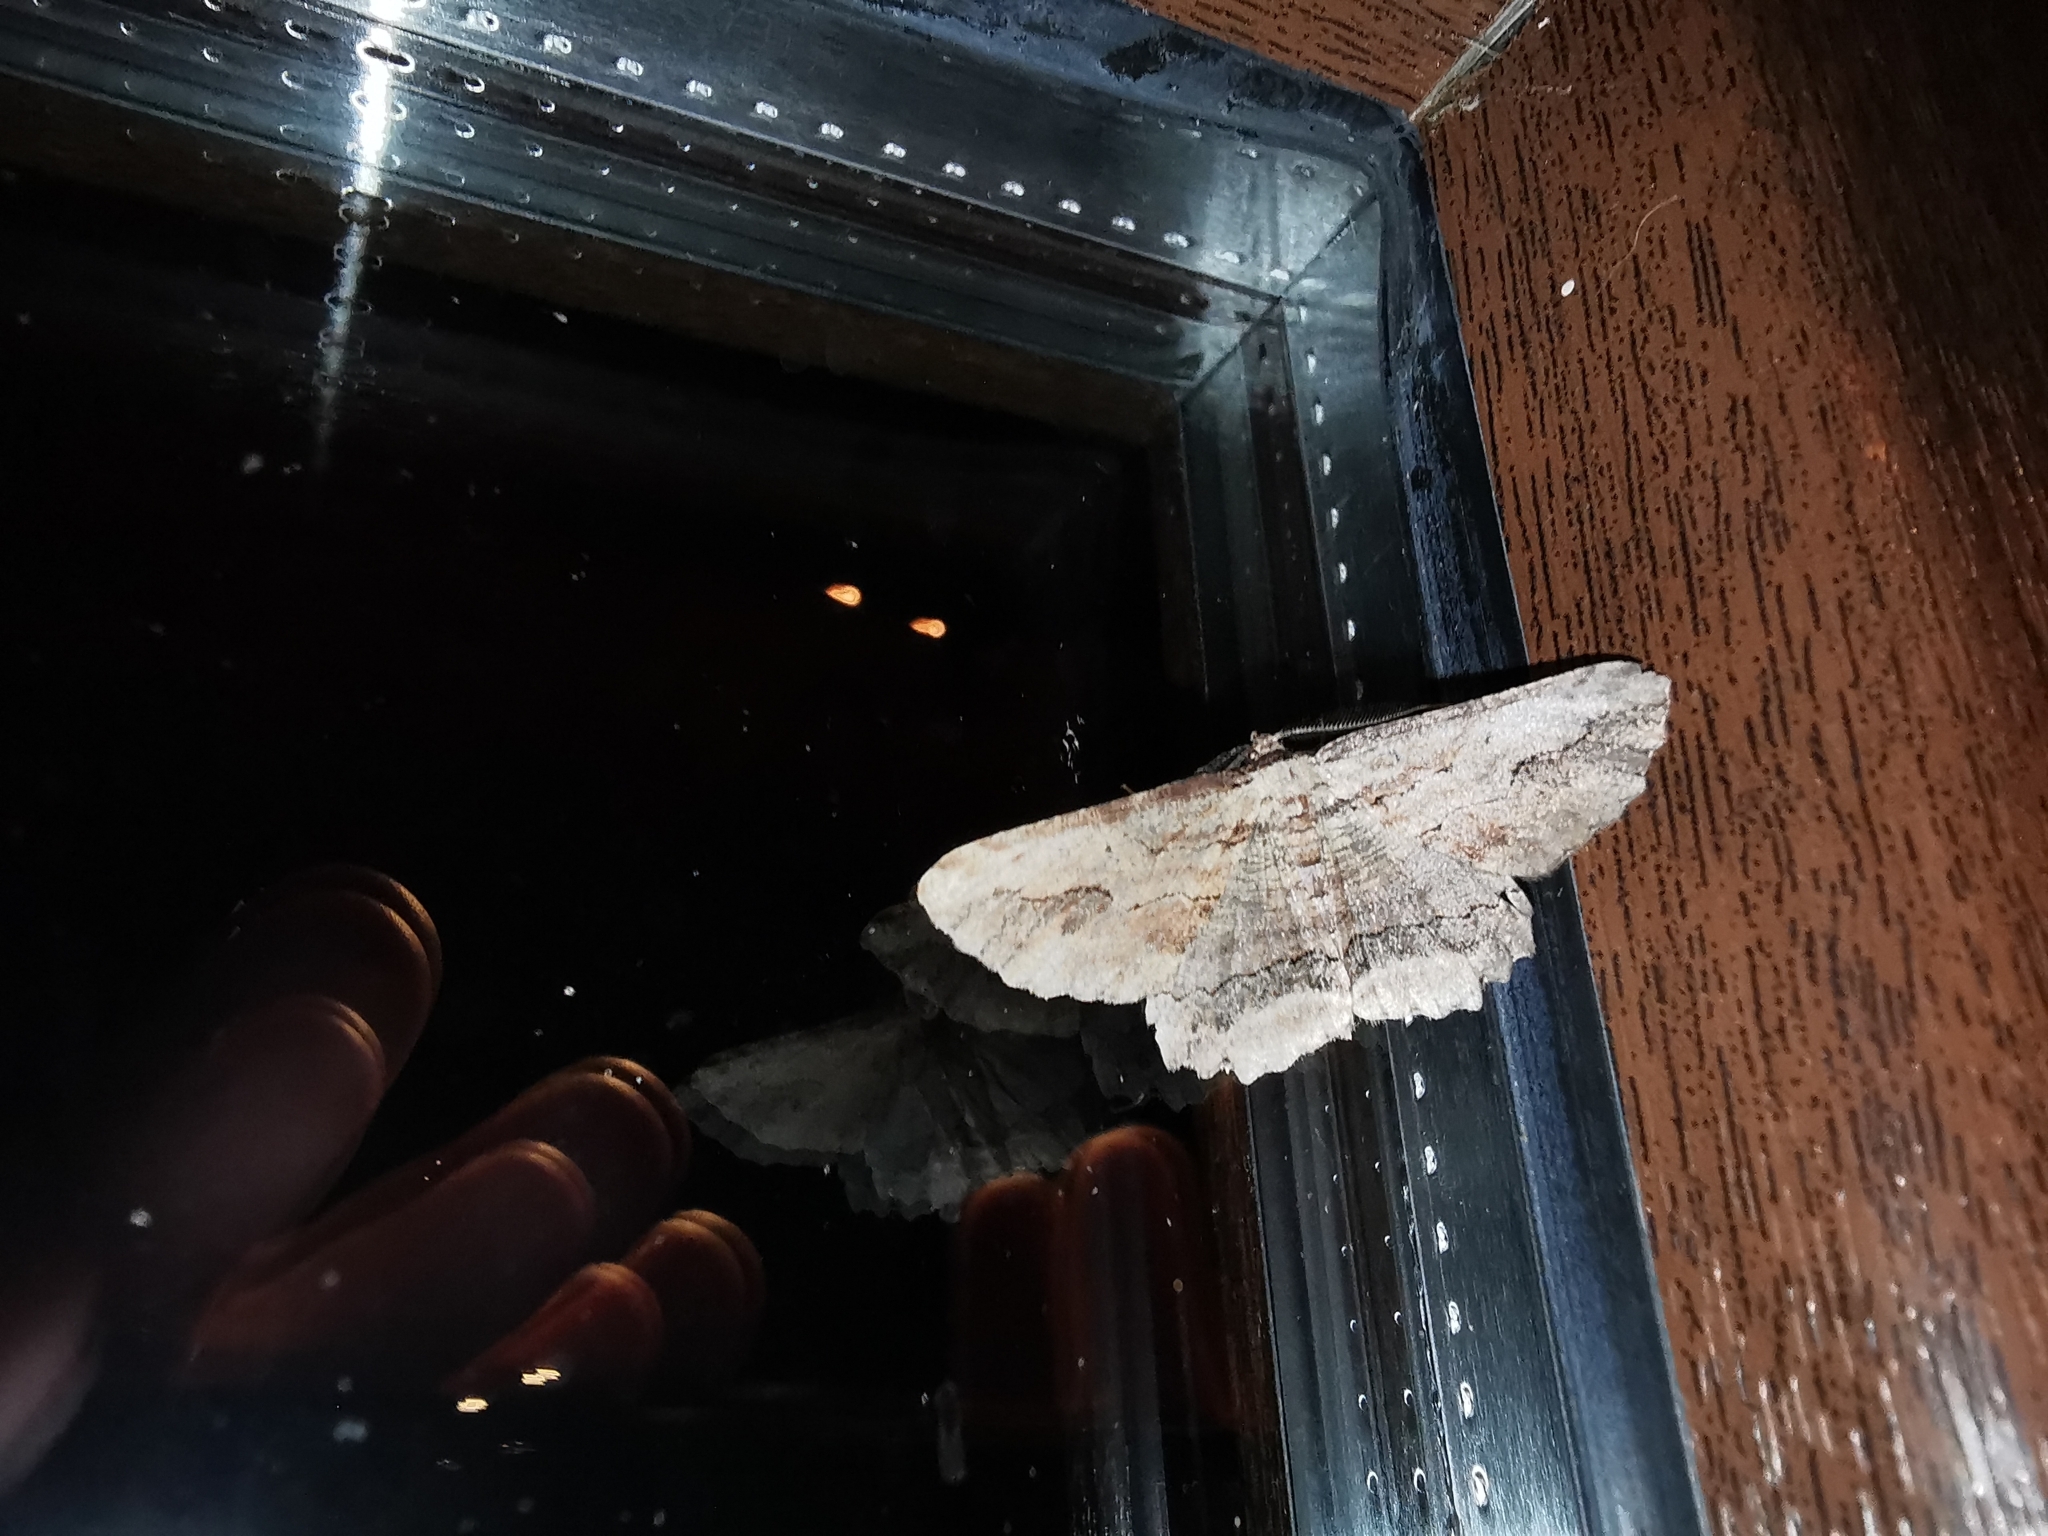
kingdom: Animalia
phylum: Arthropoda
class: Insecta
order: Lepidoptera
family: Geometridae
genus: Menophra
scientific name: Menophra abruptaria
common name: Waved umber
